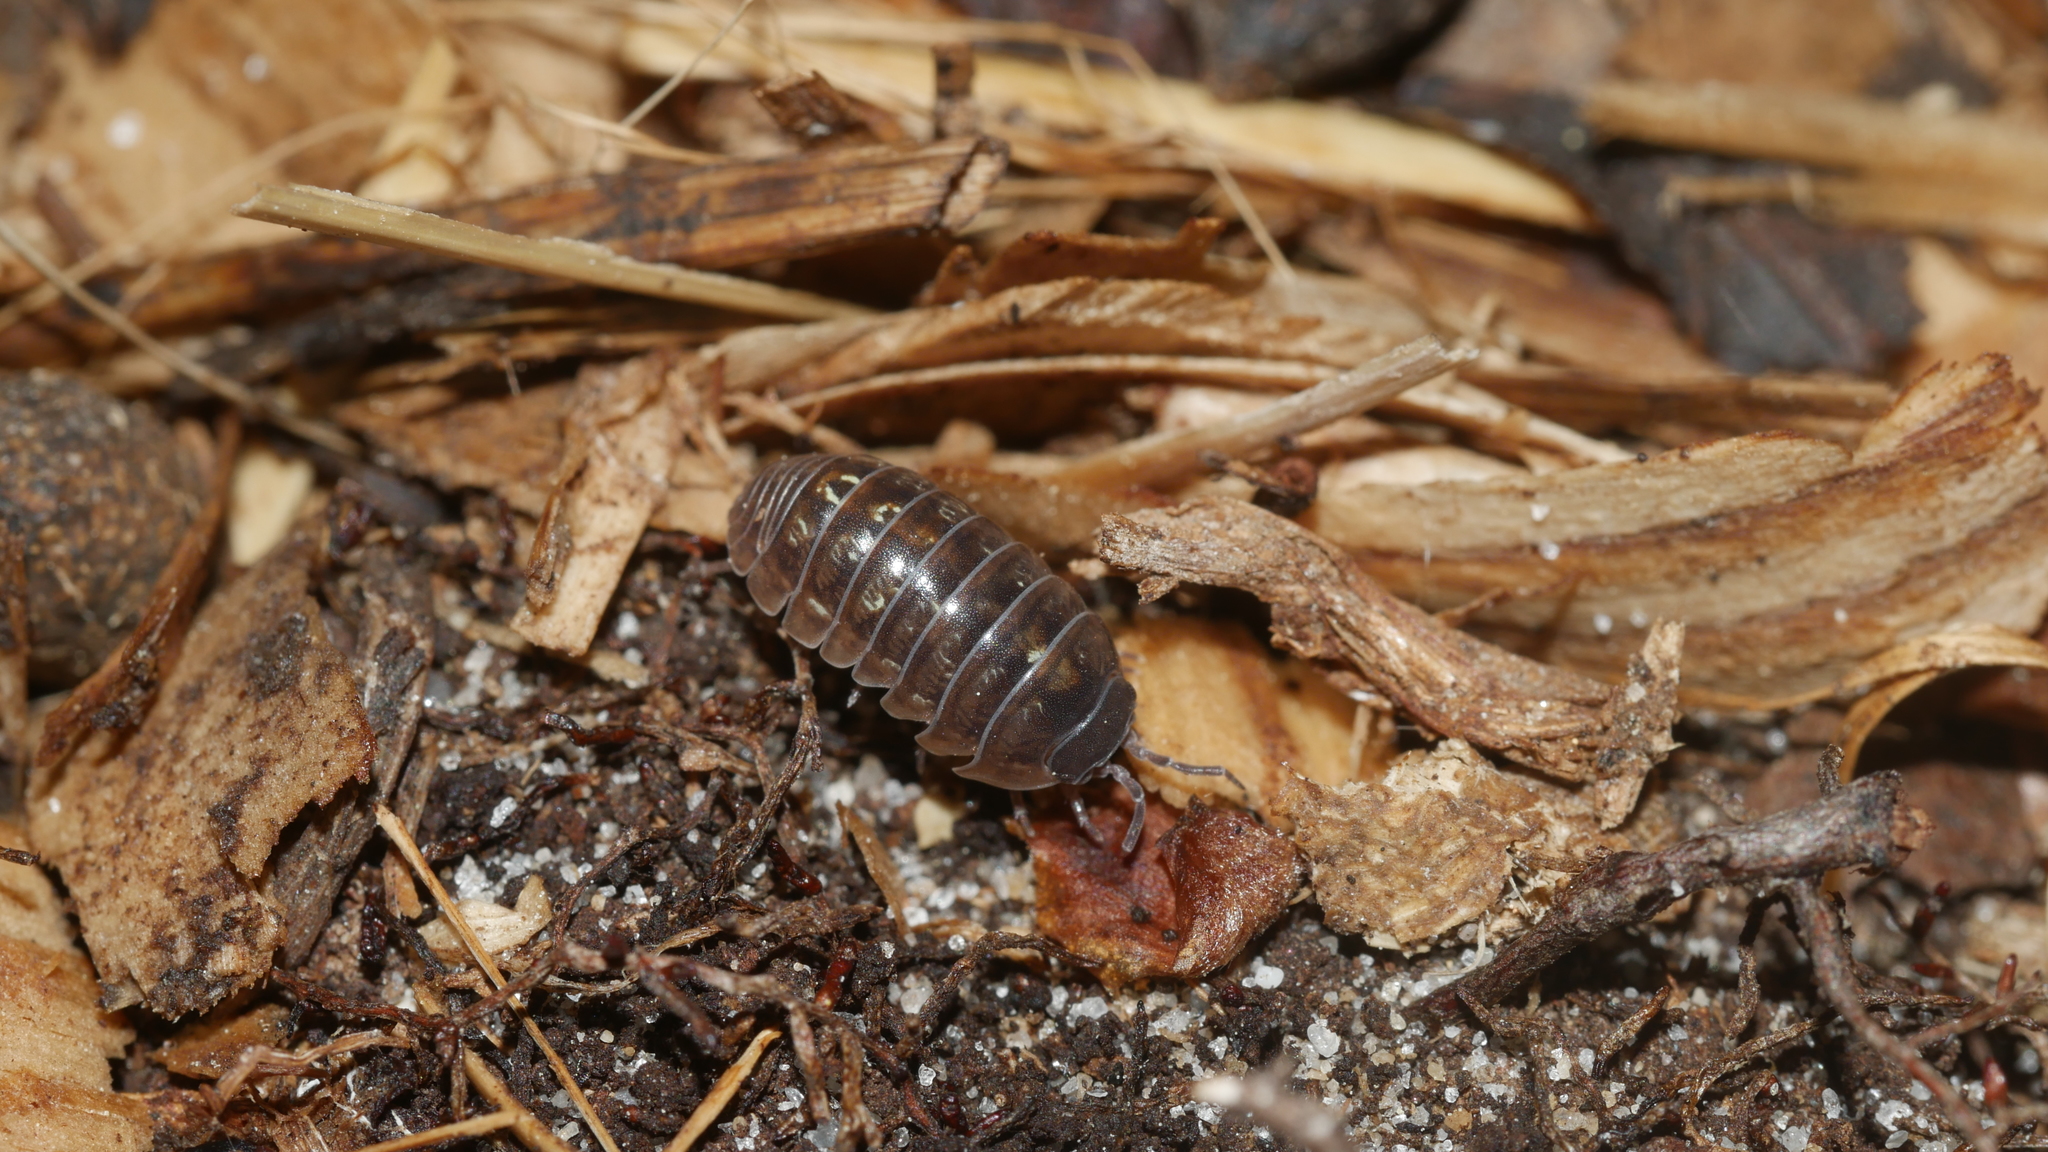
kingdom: Animalia
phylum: Arthropoda
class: Malacostraca
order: Isopoda
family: Armadillidiidae
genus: Armadillidium
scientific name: Armadillidium vulgare
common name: Common pill woodlouse
